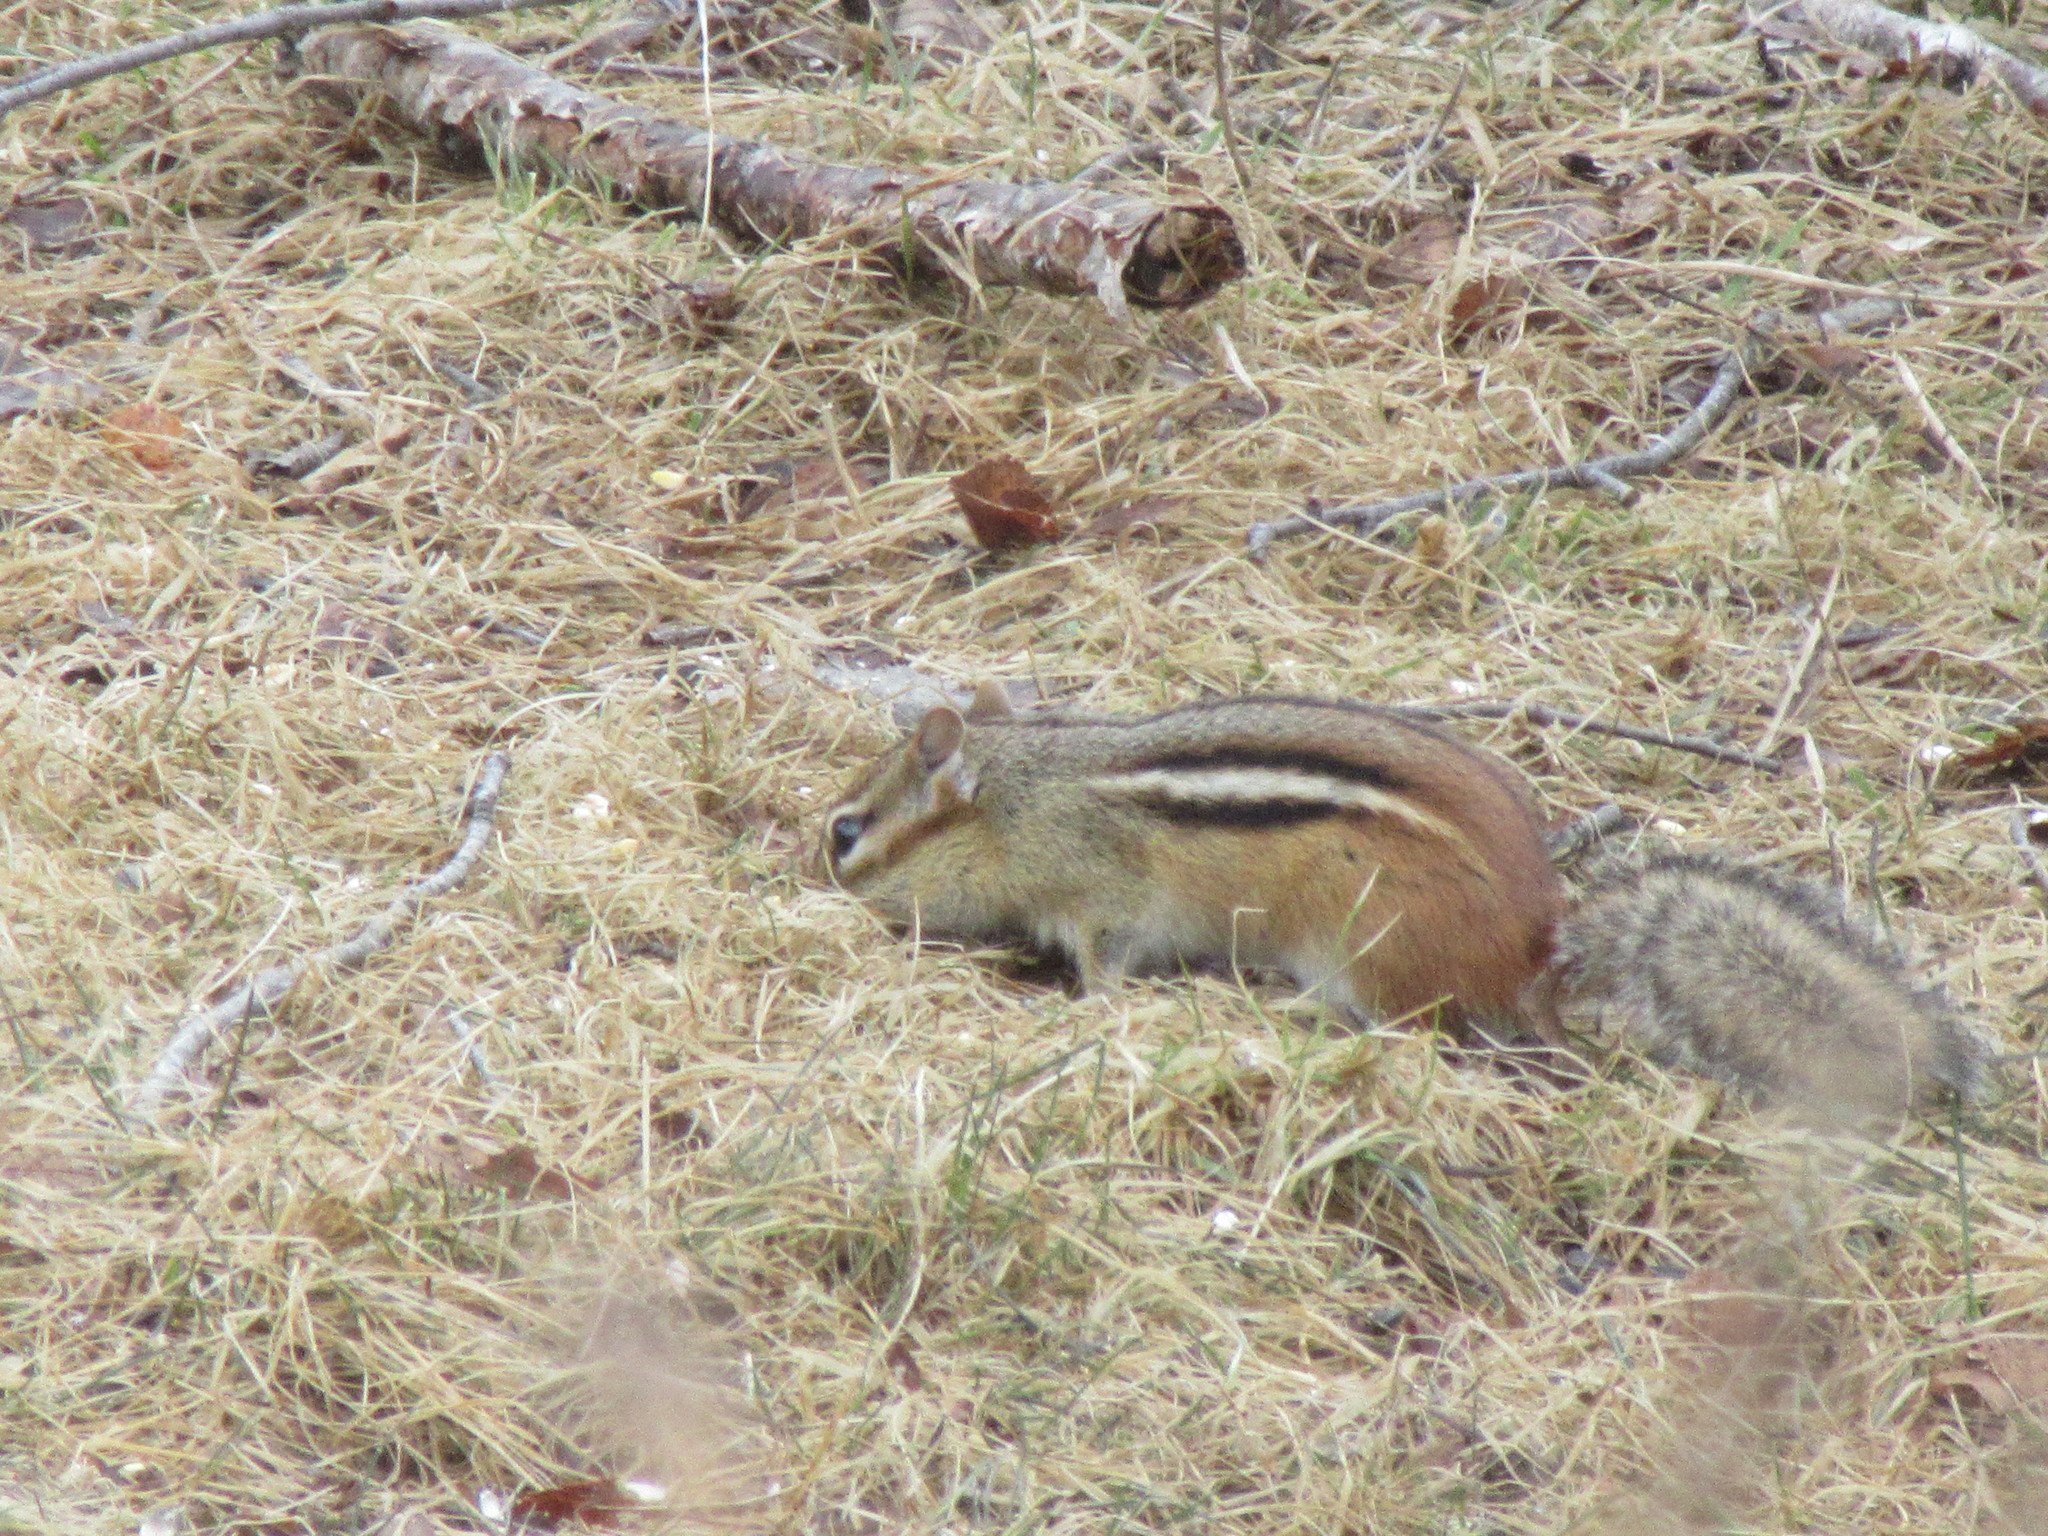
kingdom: Animalia
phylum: Chordata
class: Mammalia
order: Rodentia
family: Sciuridae
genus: Tamias
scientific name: Tamias striatus
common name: Eastern chipmunk
